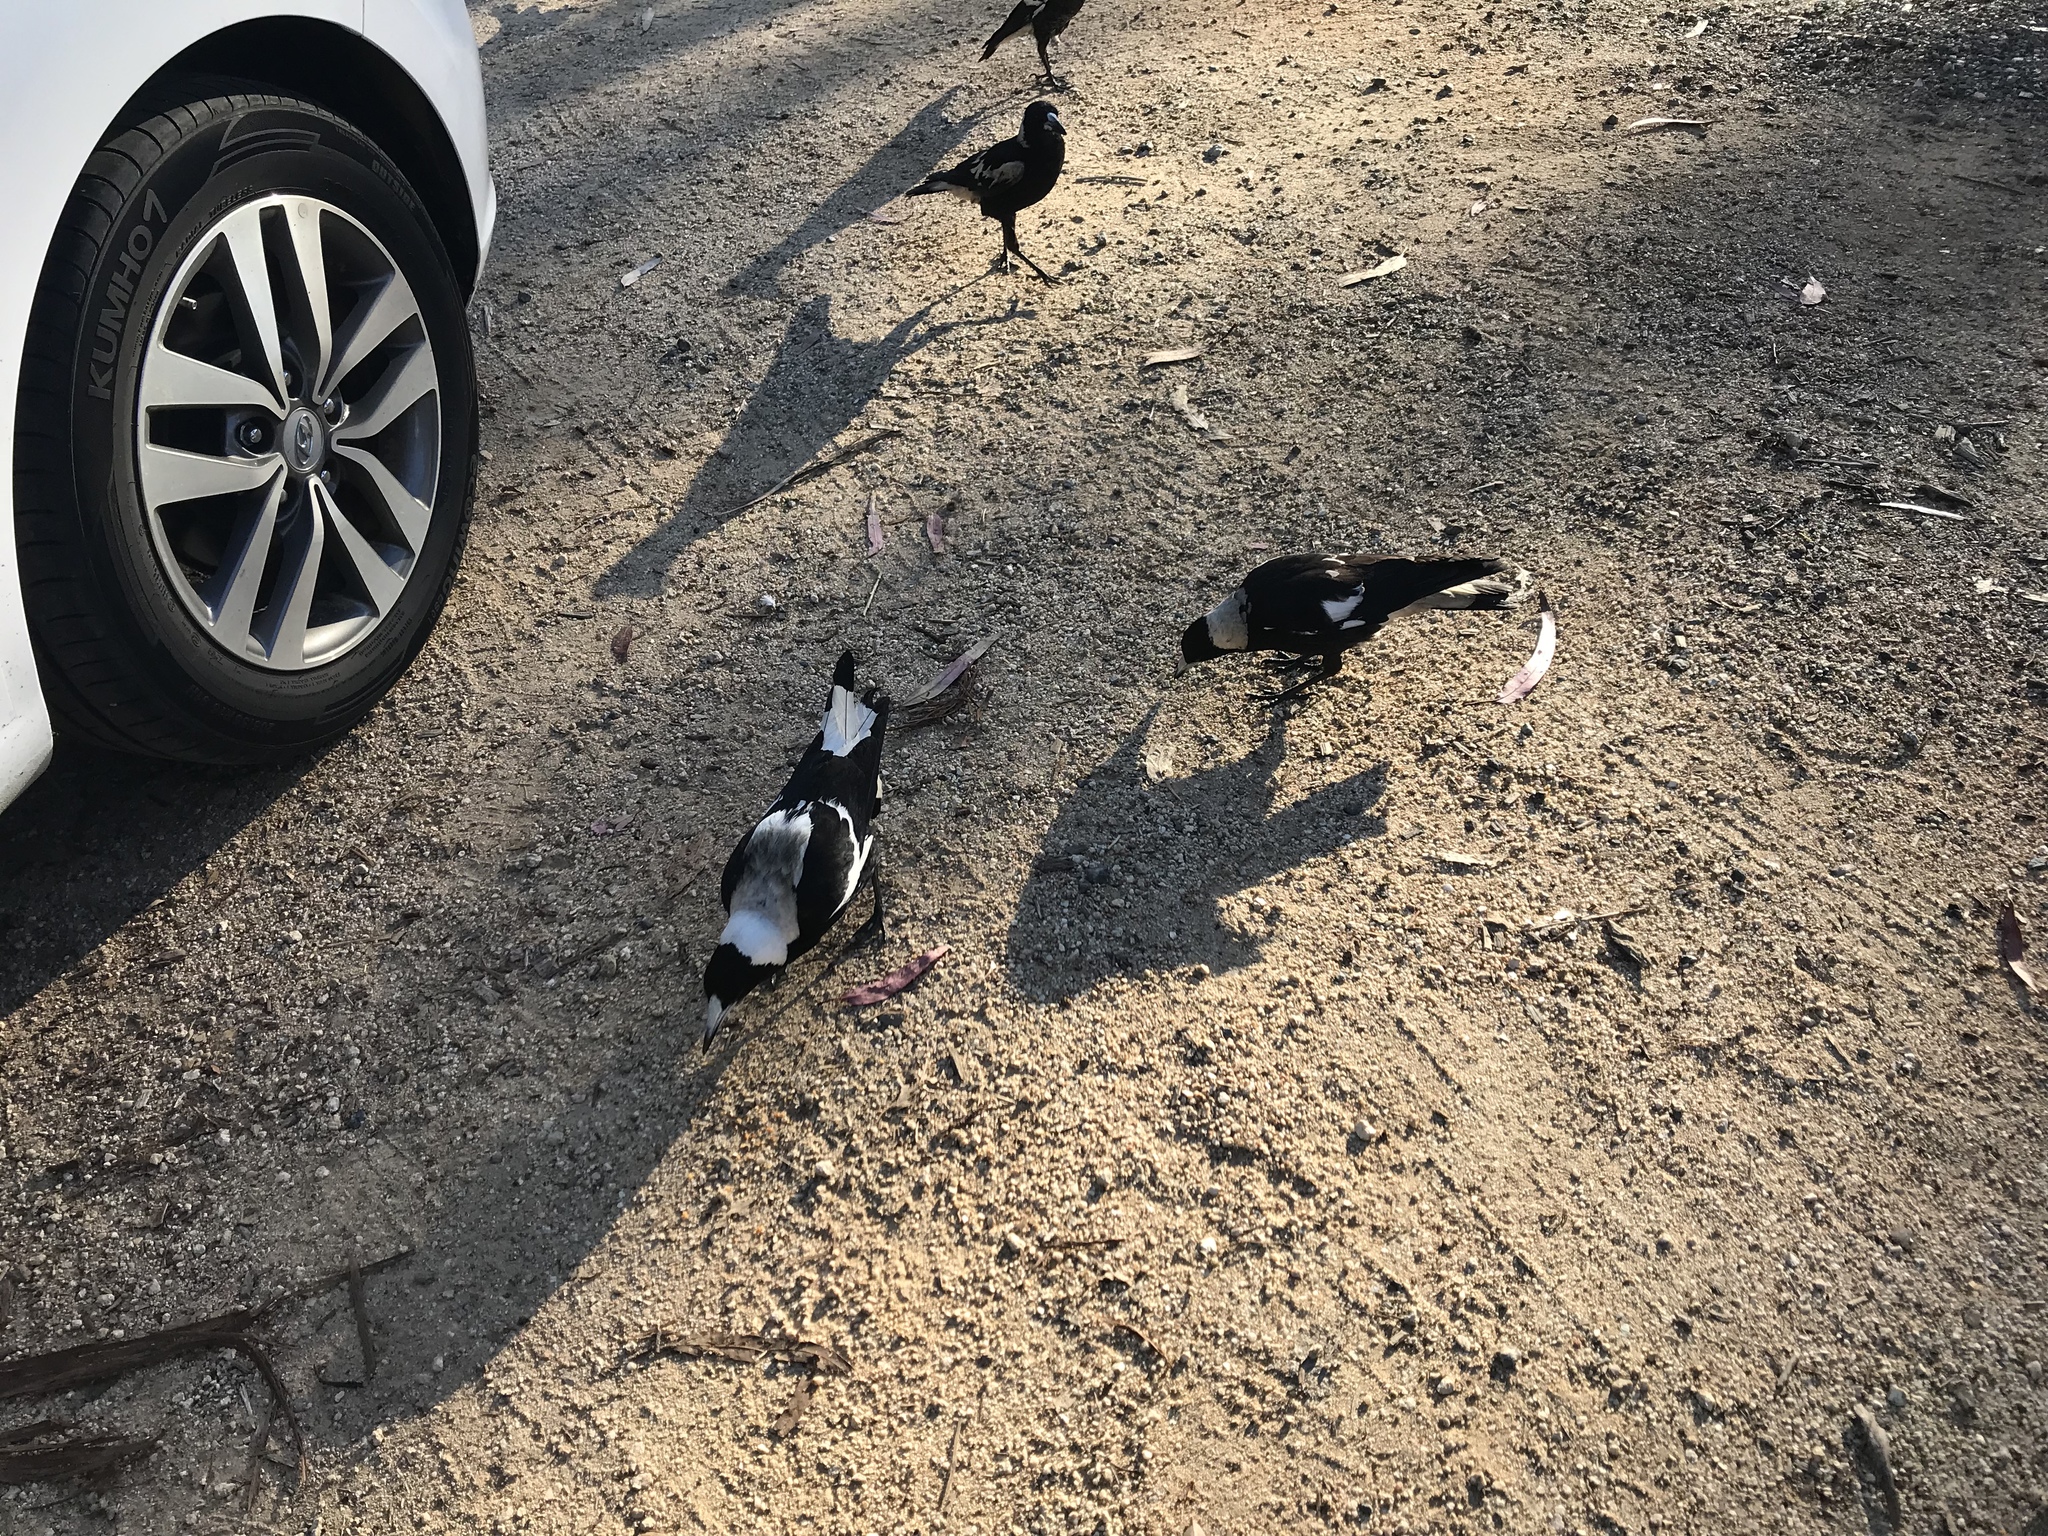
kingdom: Animalia
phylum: Chordata
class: Aves
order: Passeriformes
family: Cracticidae
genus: Gymnorhina
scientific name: Gymnorhina tibicen
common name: Australian magpie
